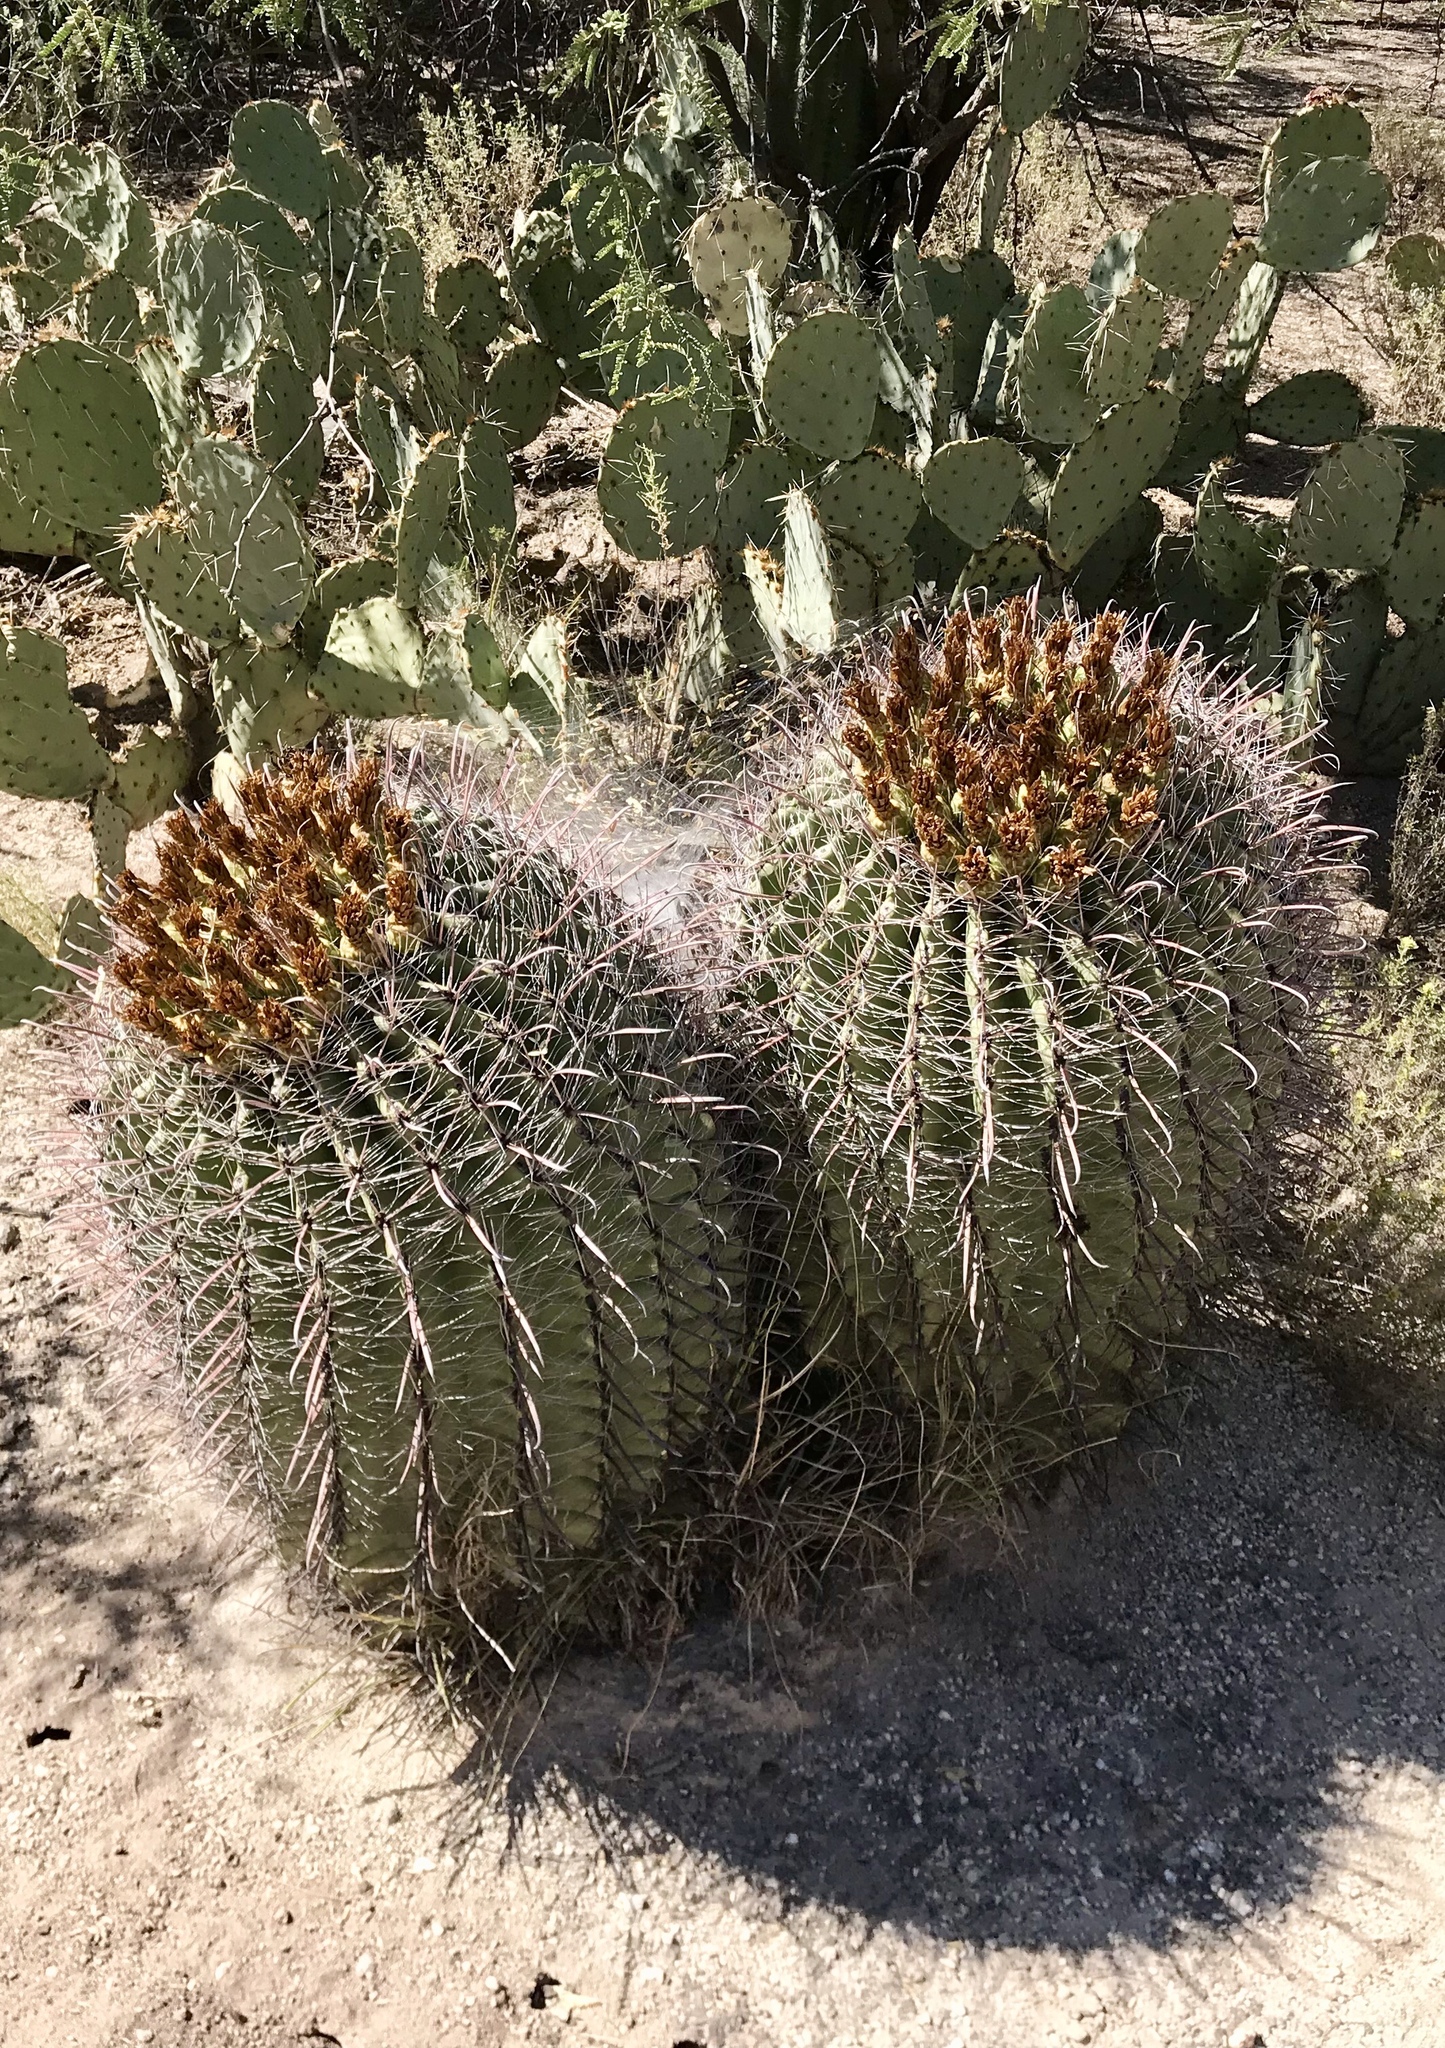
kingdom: Plantae
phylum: Tracheophyta
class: Magnoliopsida
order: Caryophyllales
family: Cactaceae
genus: Ferocactus
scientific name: Ferocactus wislizeni
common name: Candy barrel cactus
